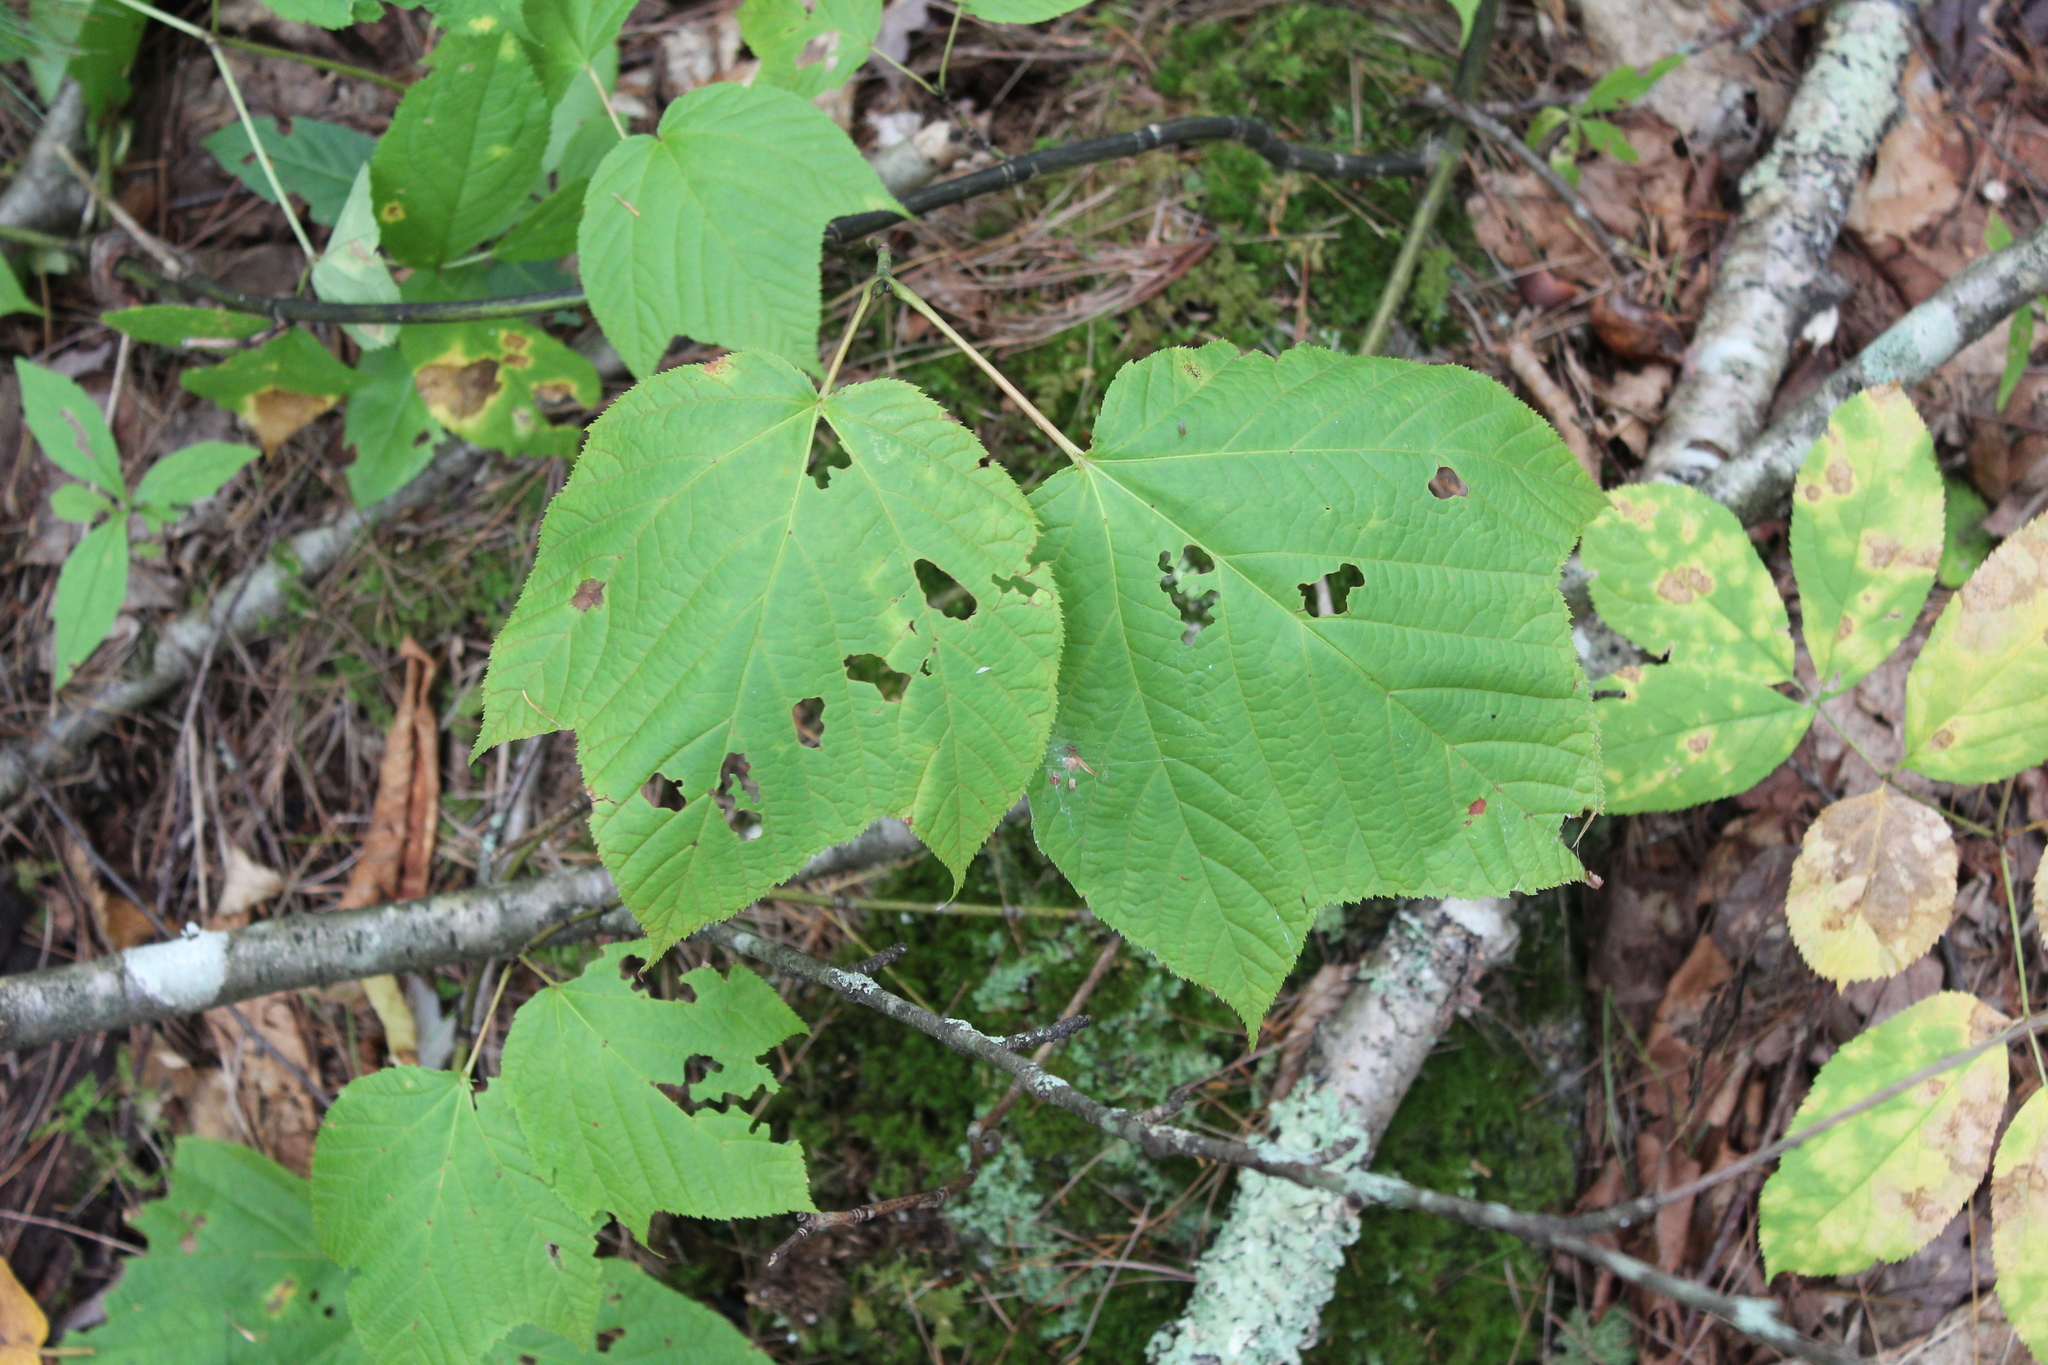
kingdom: Plantae
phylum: Tracheophyta
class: Magnoliopsida
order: Sapindales
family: Sapindaceae
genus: Acer
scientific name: Acer pensylvanicum
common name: Moosewood
